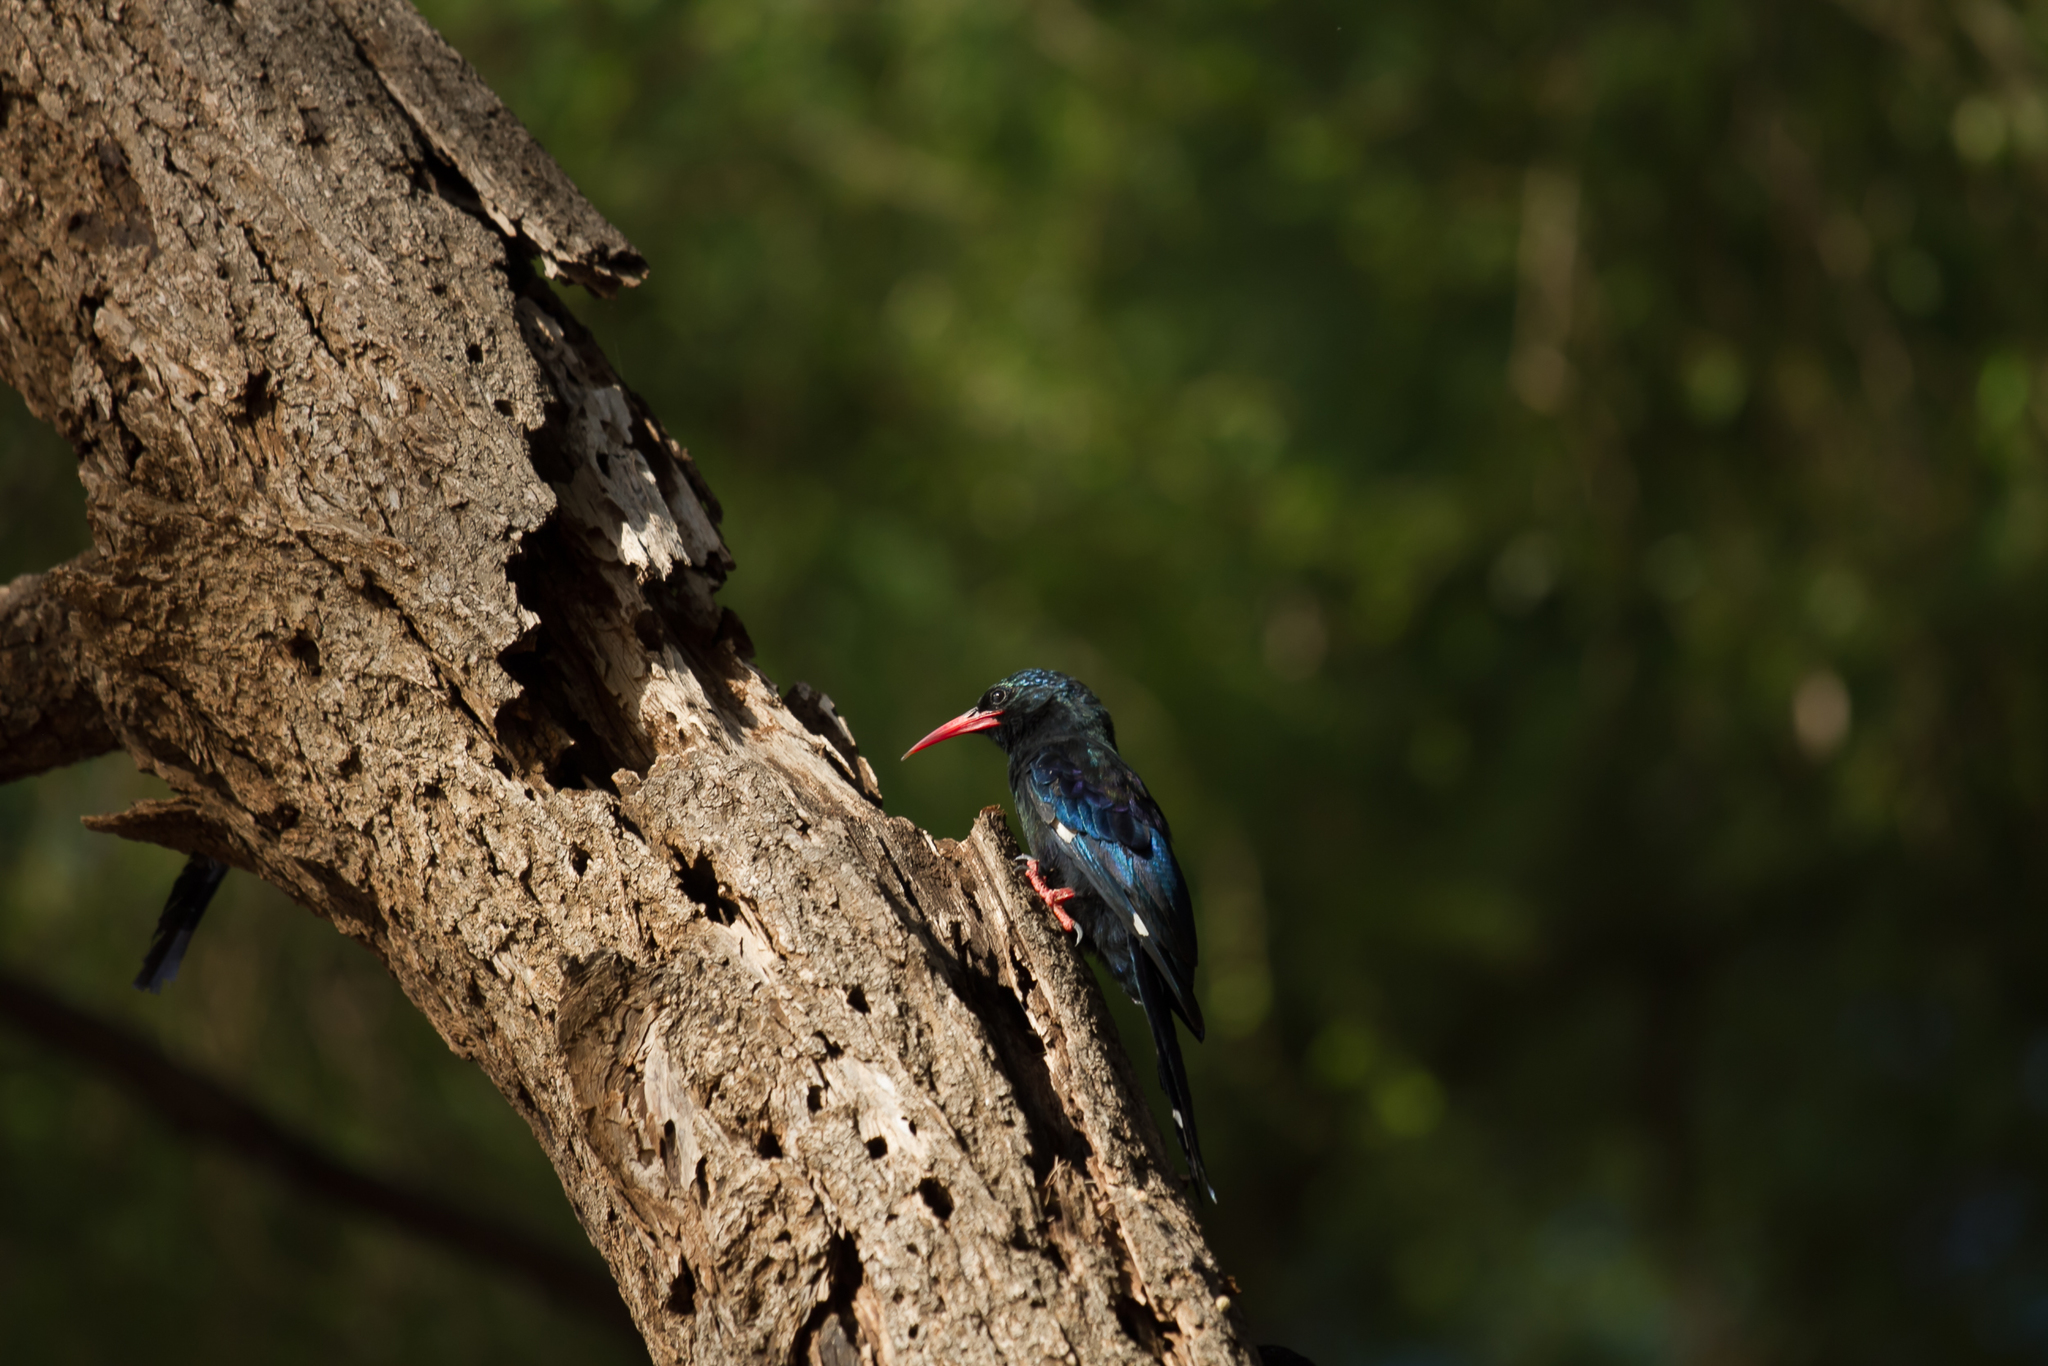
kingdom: Animalia
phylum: Chordata
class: Aves
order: Bucerotiformes
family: Phoeniculidae
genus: Phoeniculus
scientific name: Phoeniculus purpureus
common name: Green woodhoopoe
